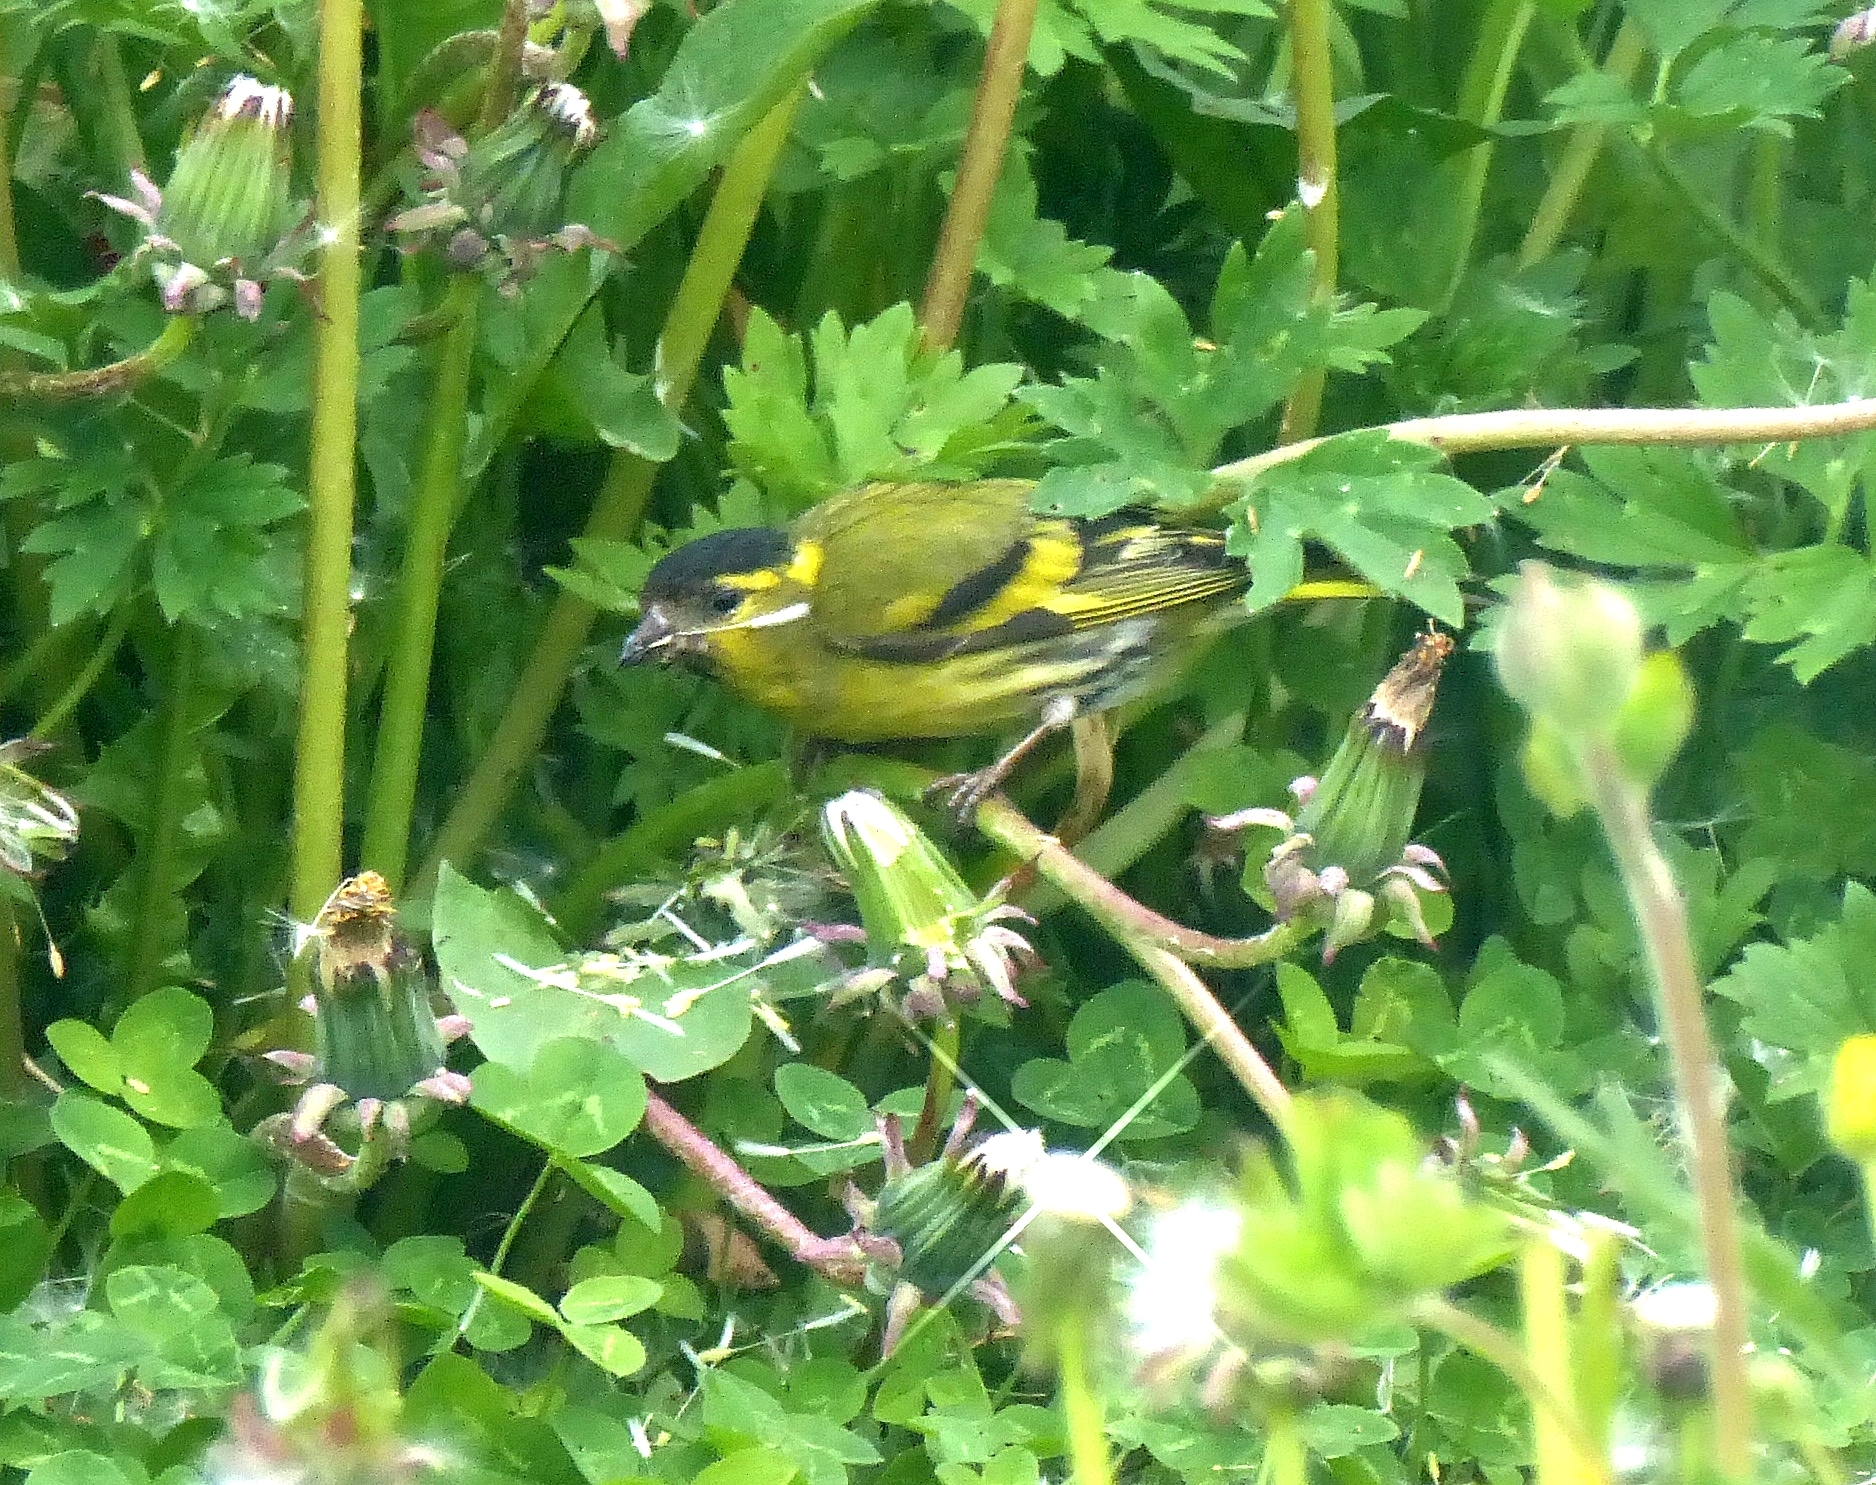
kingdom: Animalia
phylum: Chordata
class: Aves
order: Passeriformes
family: Fringillidae
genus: Spinus
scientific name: Spinus spinus
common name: Eurasian siskin
